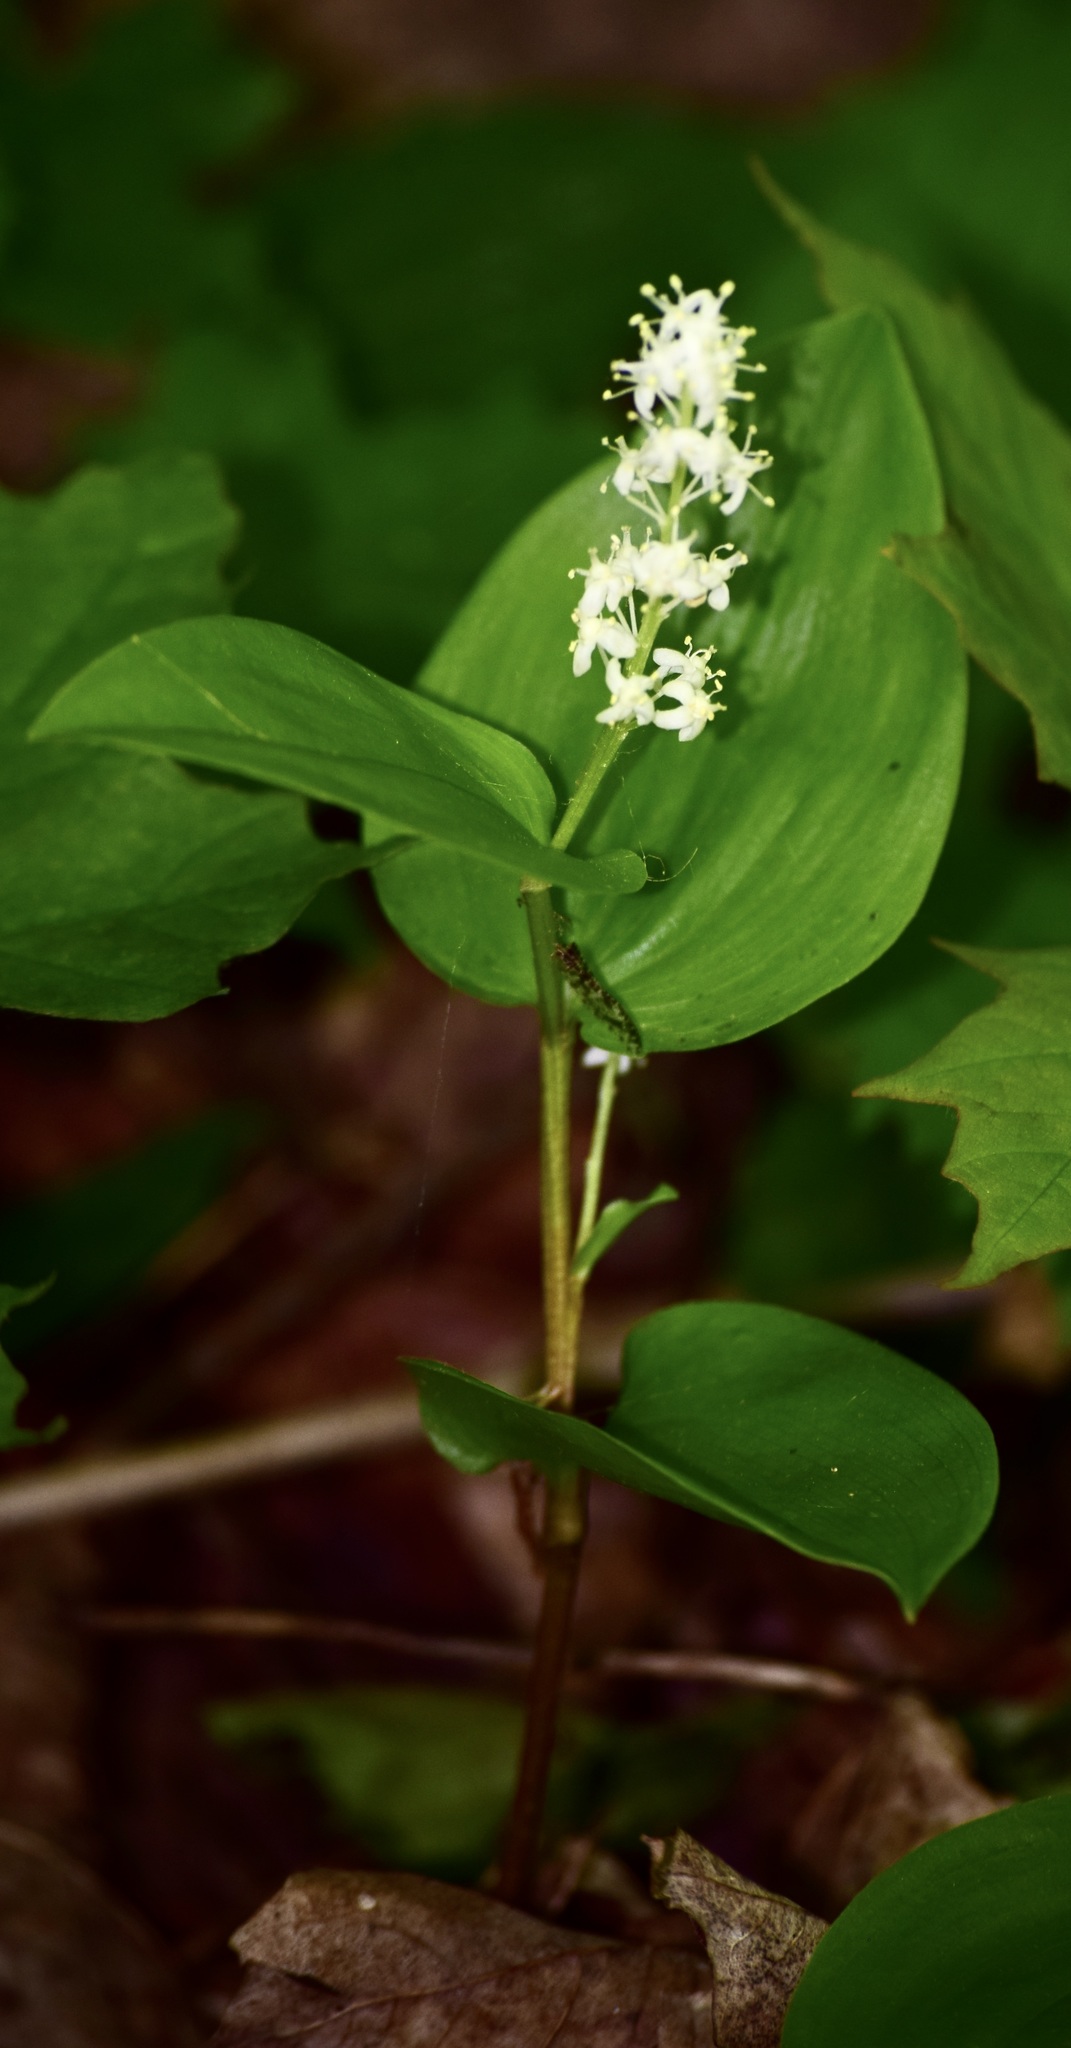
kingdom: Plantae
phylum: Tracheophyta
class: Liliopsida
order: Asparagales
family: Asparagaceae
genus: Maianthemum
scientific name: Maianthemum canadense
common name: False lily-of-the-valley
